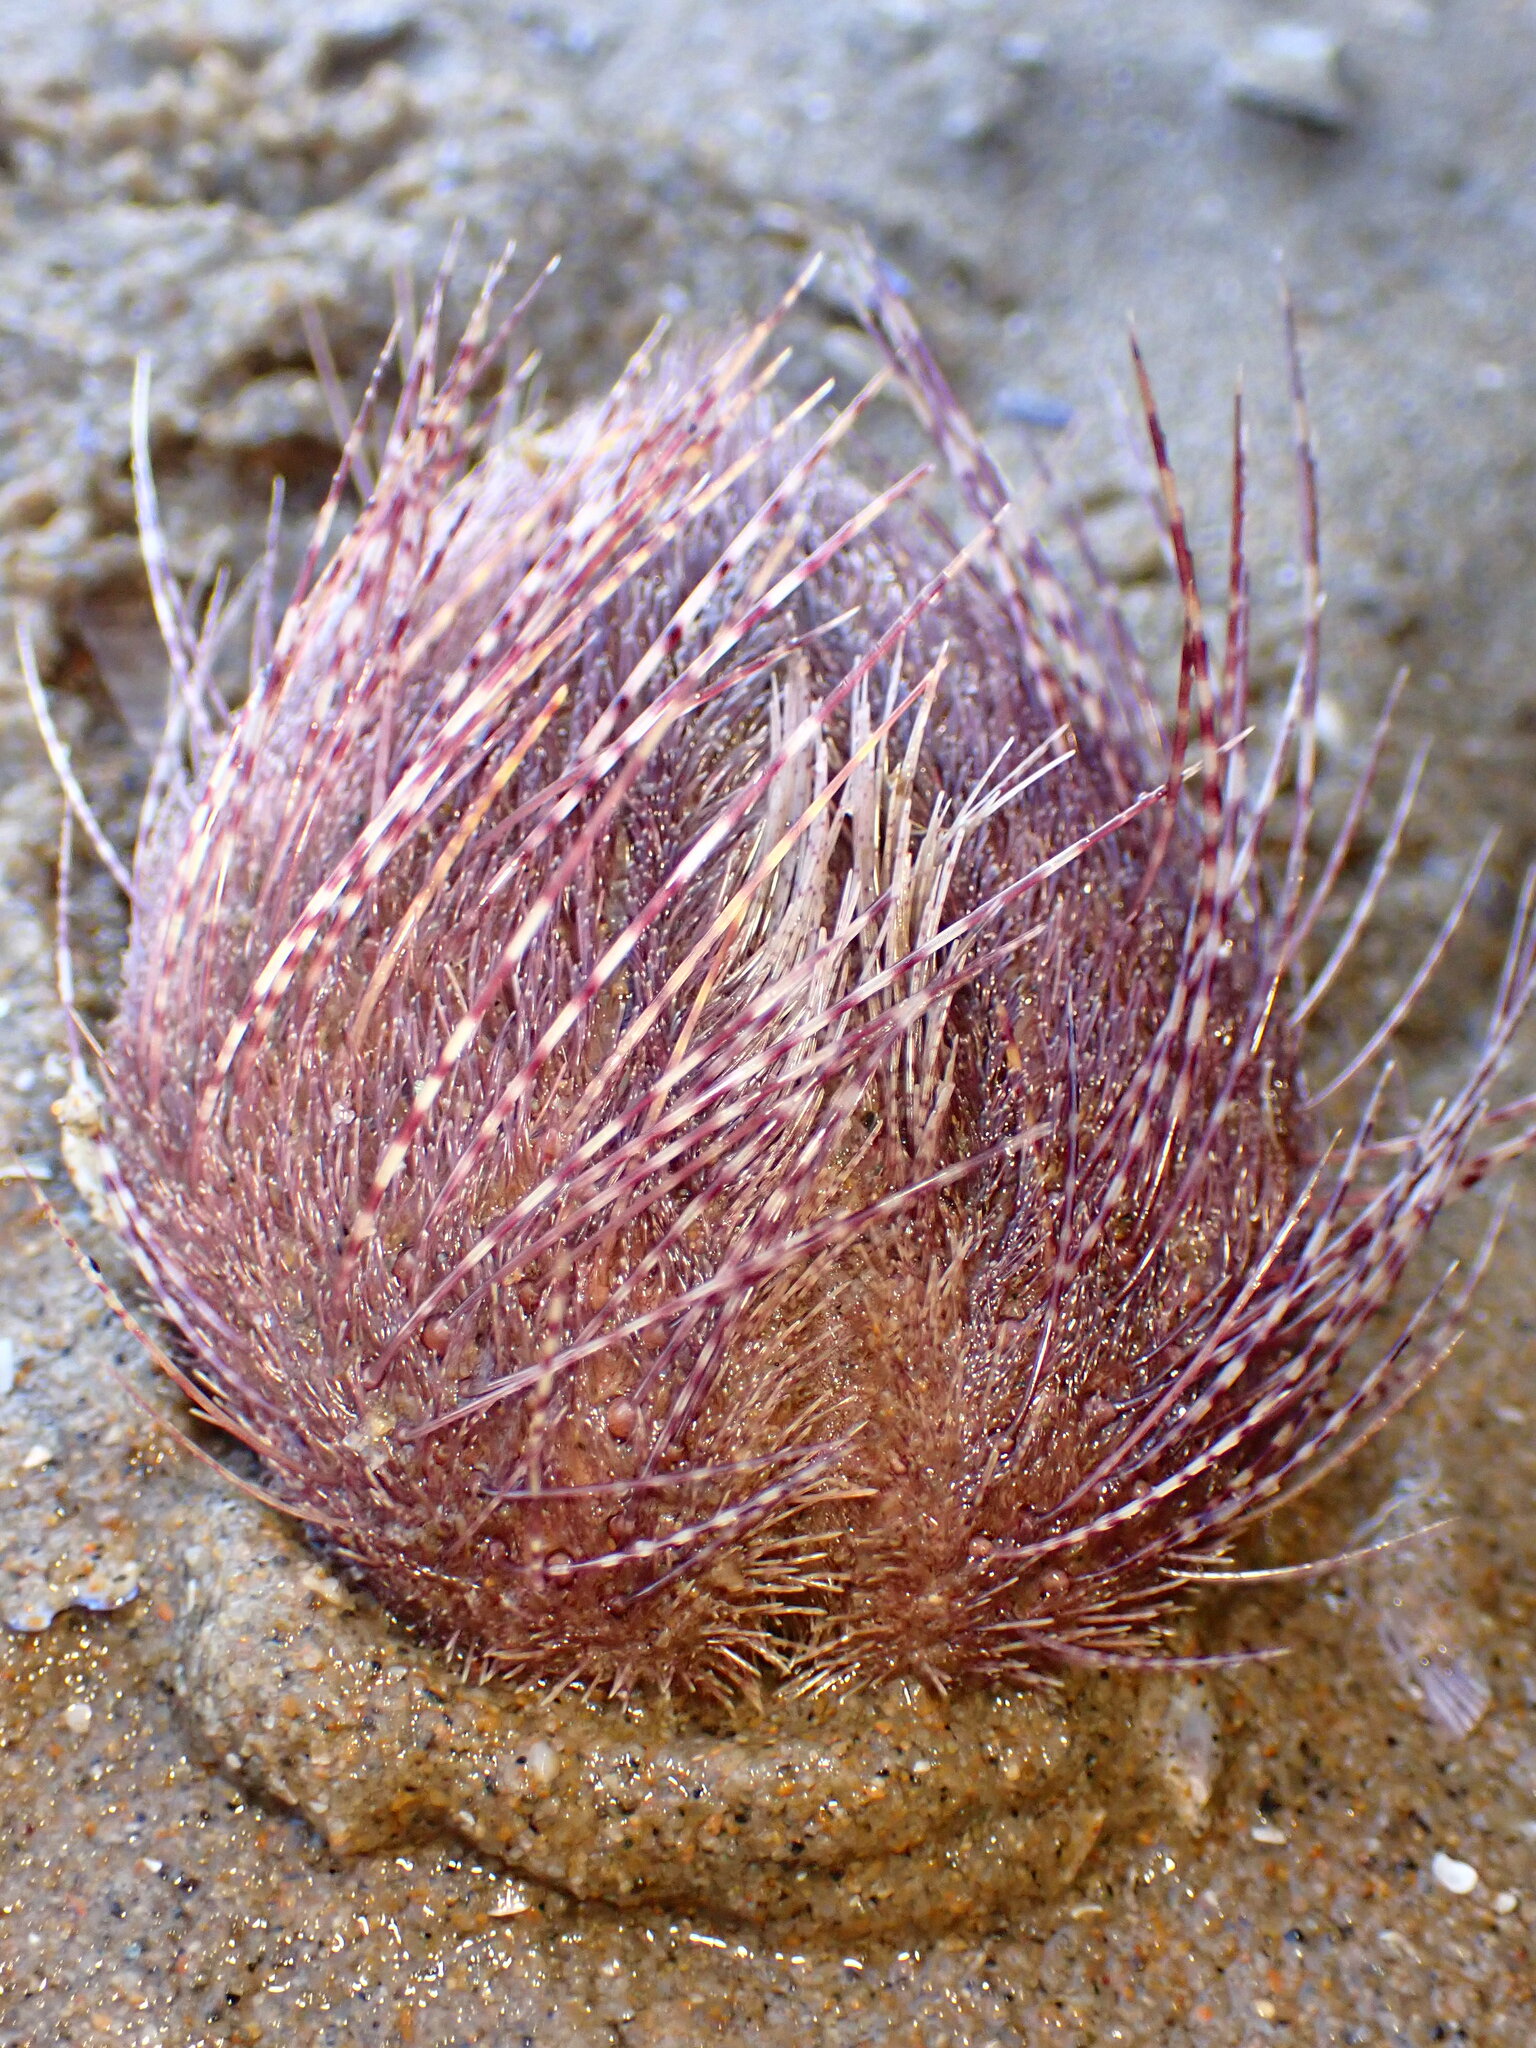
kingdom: Animalia
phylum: Echinodermata
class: Echinoidea
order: Spatangoida
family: Loveniidae
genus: Lovenia
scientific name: Lovenia cordiformis
